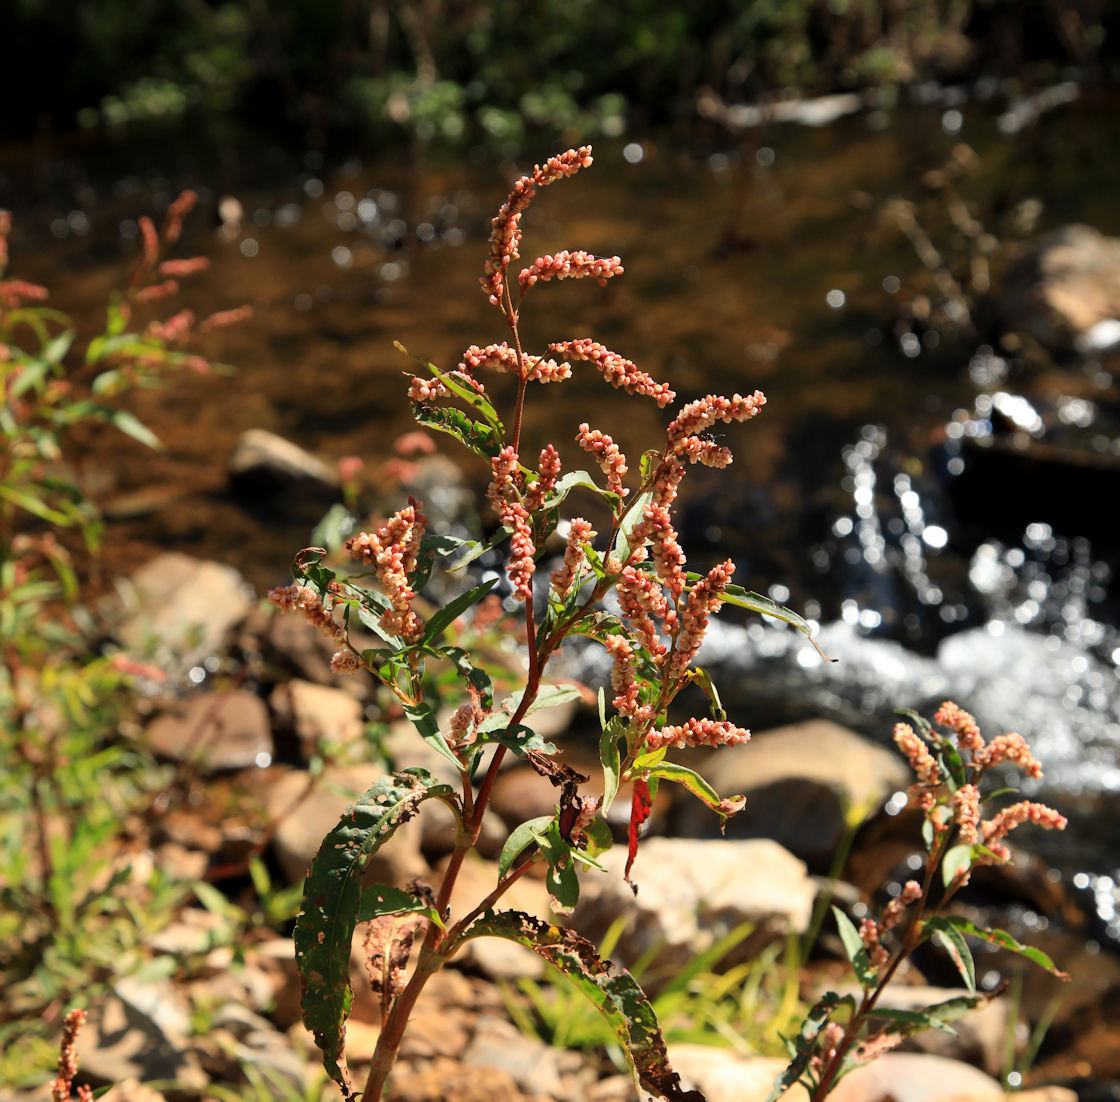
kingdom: Plantae
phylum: Tracheophyta
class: Magnoliopsida
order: Caryophyllales
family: Polygonaceae
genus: Persicaria
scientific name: Persicaria senegalensis
